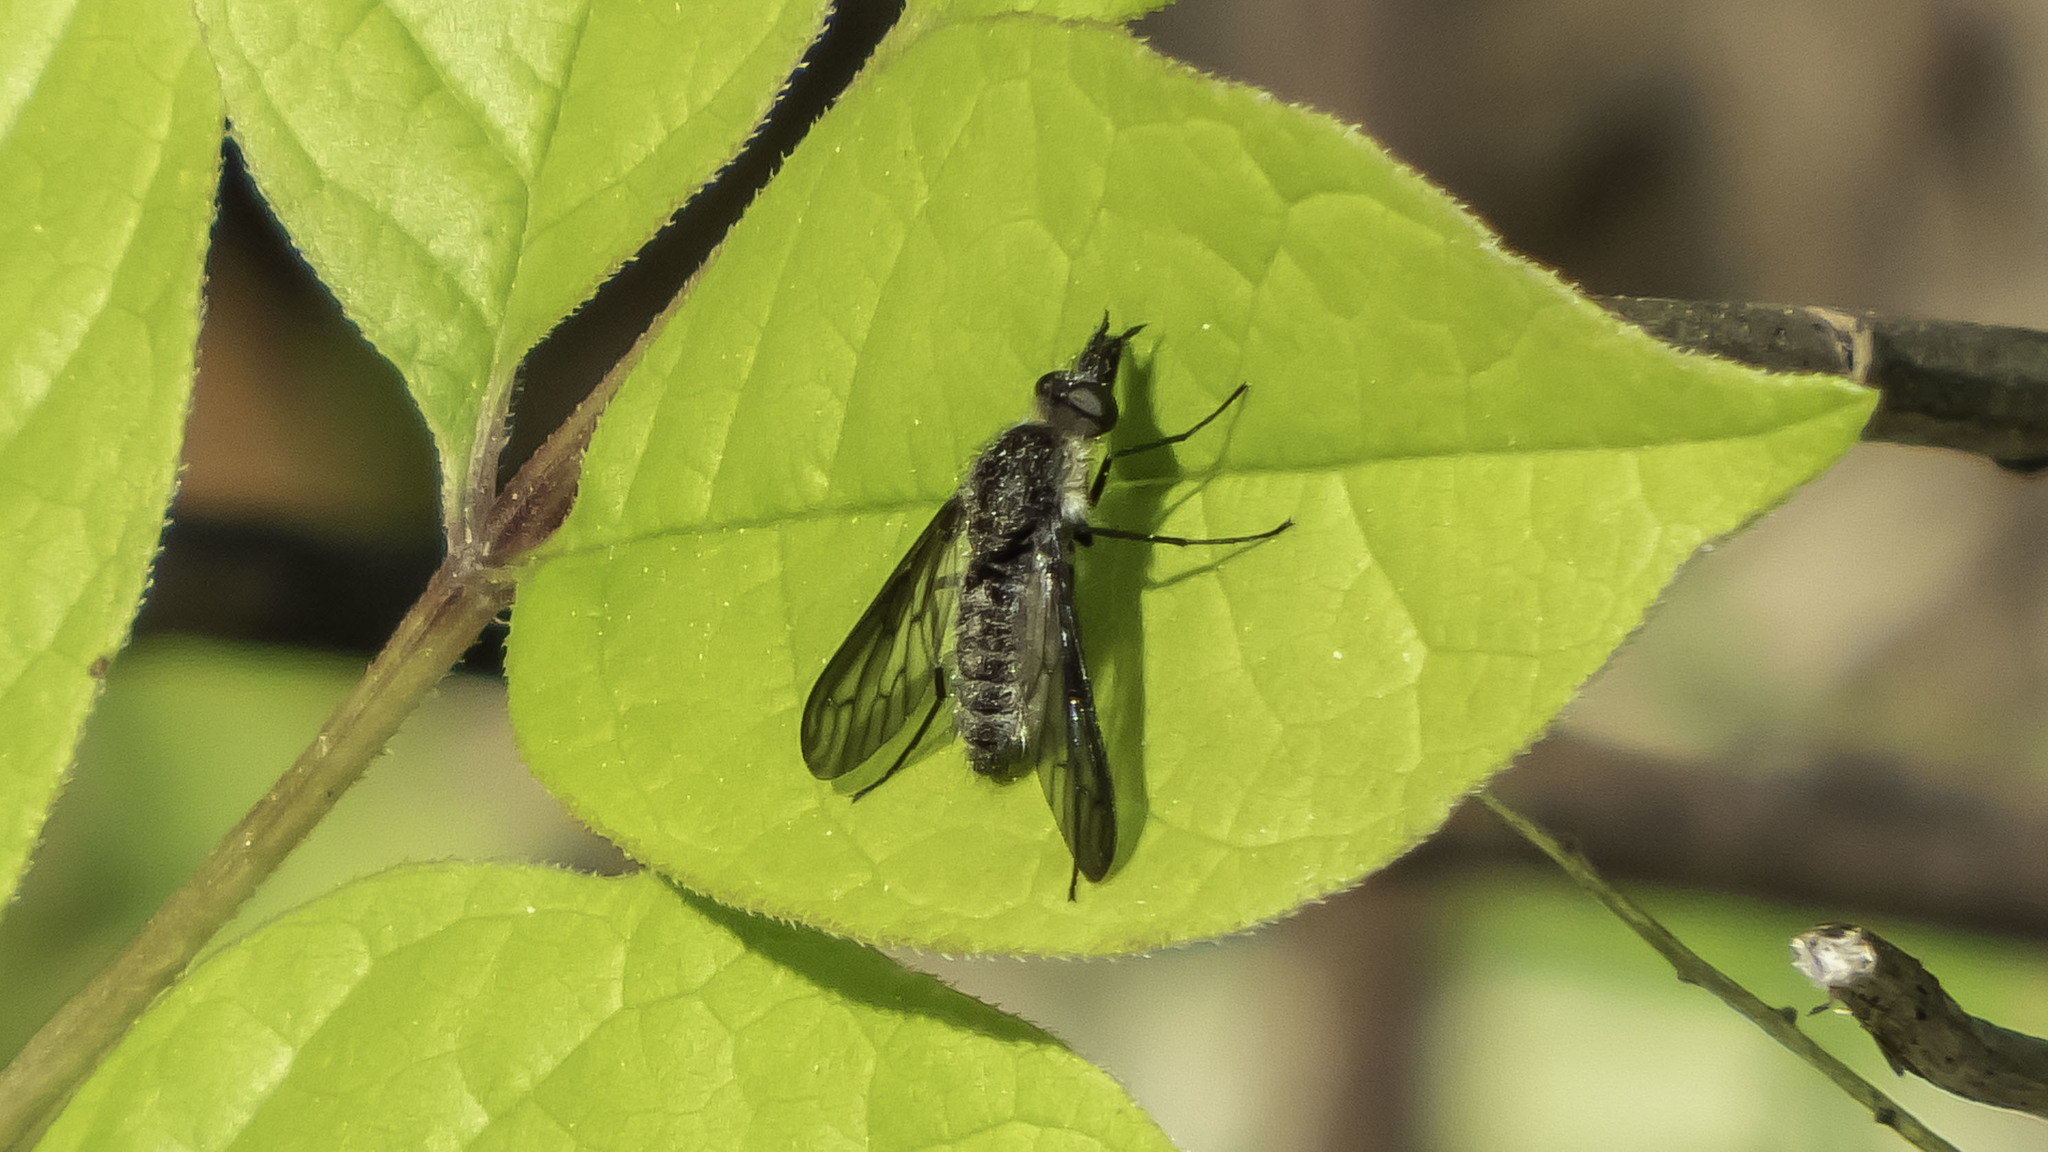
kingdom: Animalia
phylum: Arthropoda
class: Insecta
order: Diptera
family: Bombyliidae
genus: Aldrichia
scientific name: Aldrichia ehrmanni
